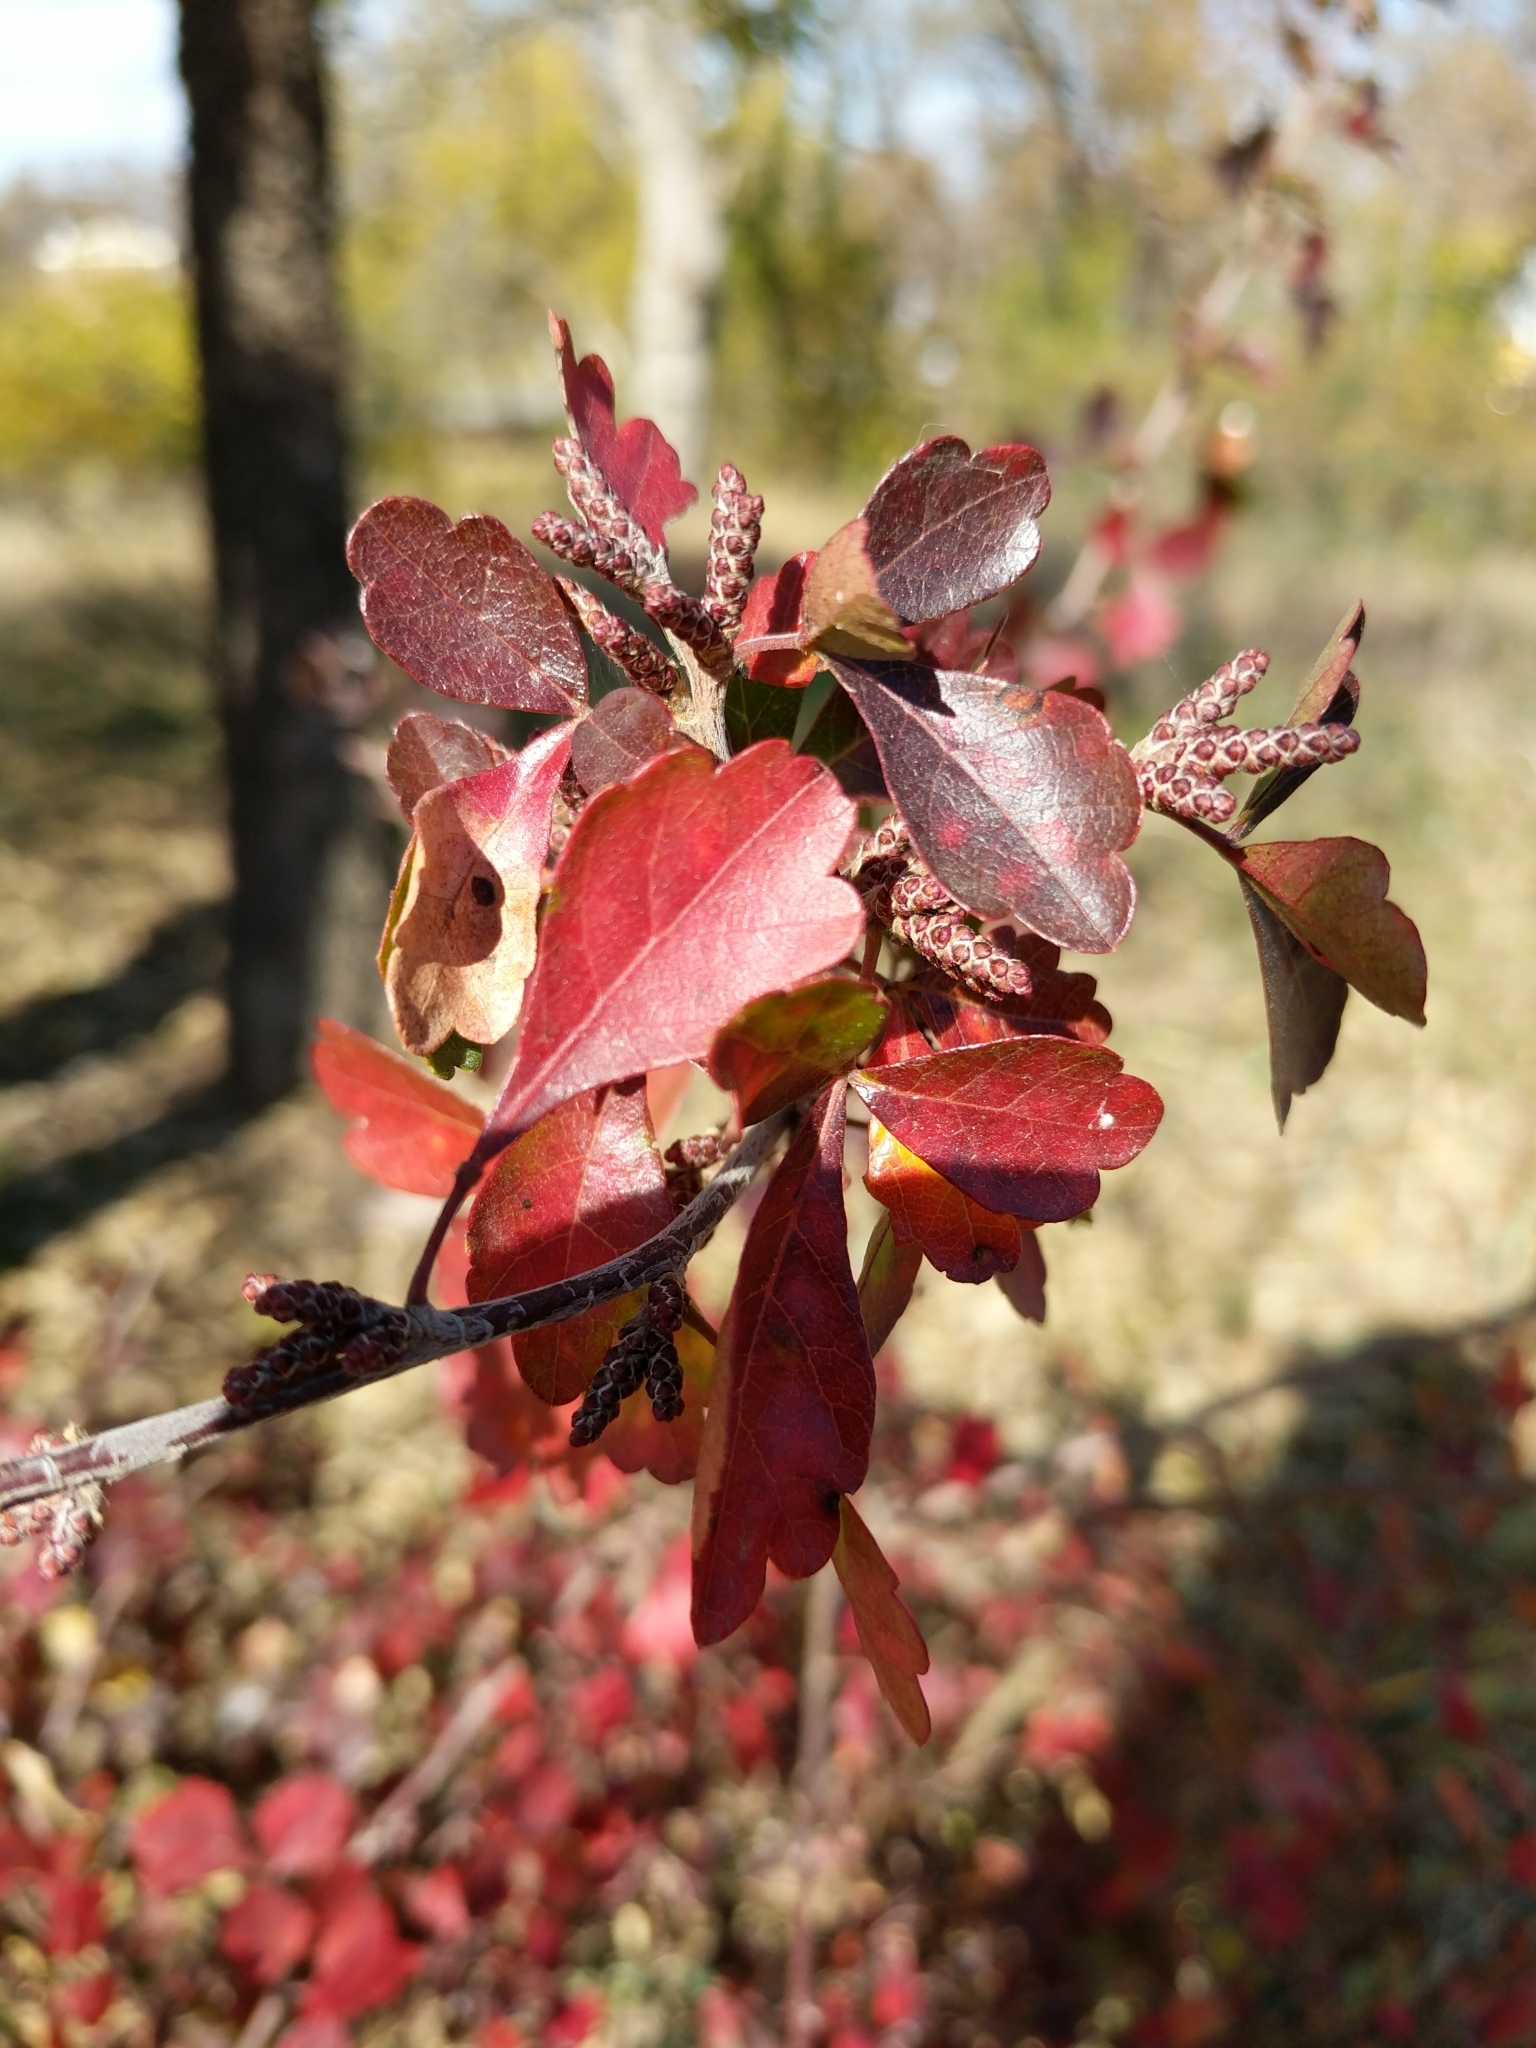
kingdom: Plantae
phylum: Tracheophyta
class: Magnoliopsida
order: Sapindales
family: Anacardiaceae
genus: Rhus
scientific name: Rhus aromatica
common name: Aromatic sumac
